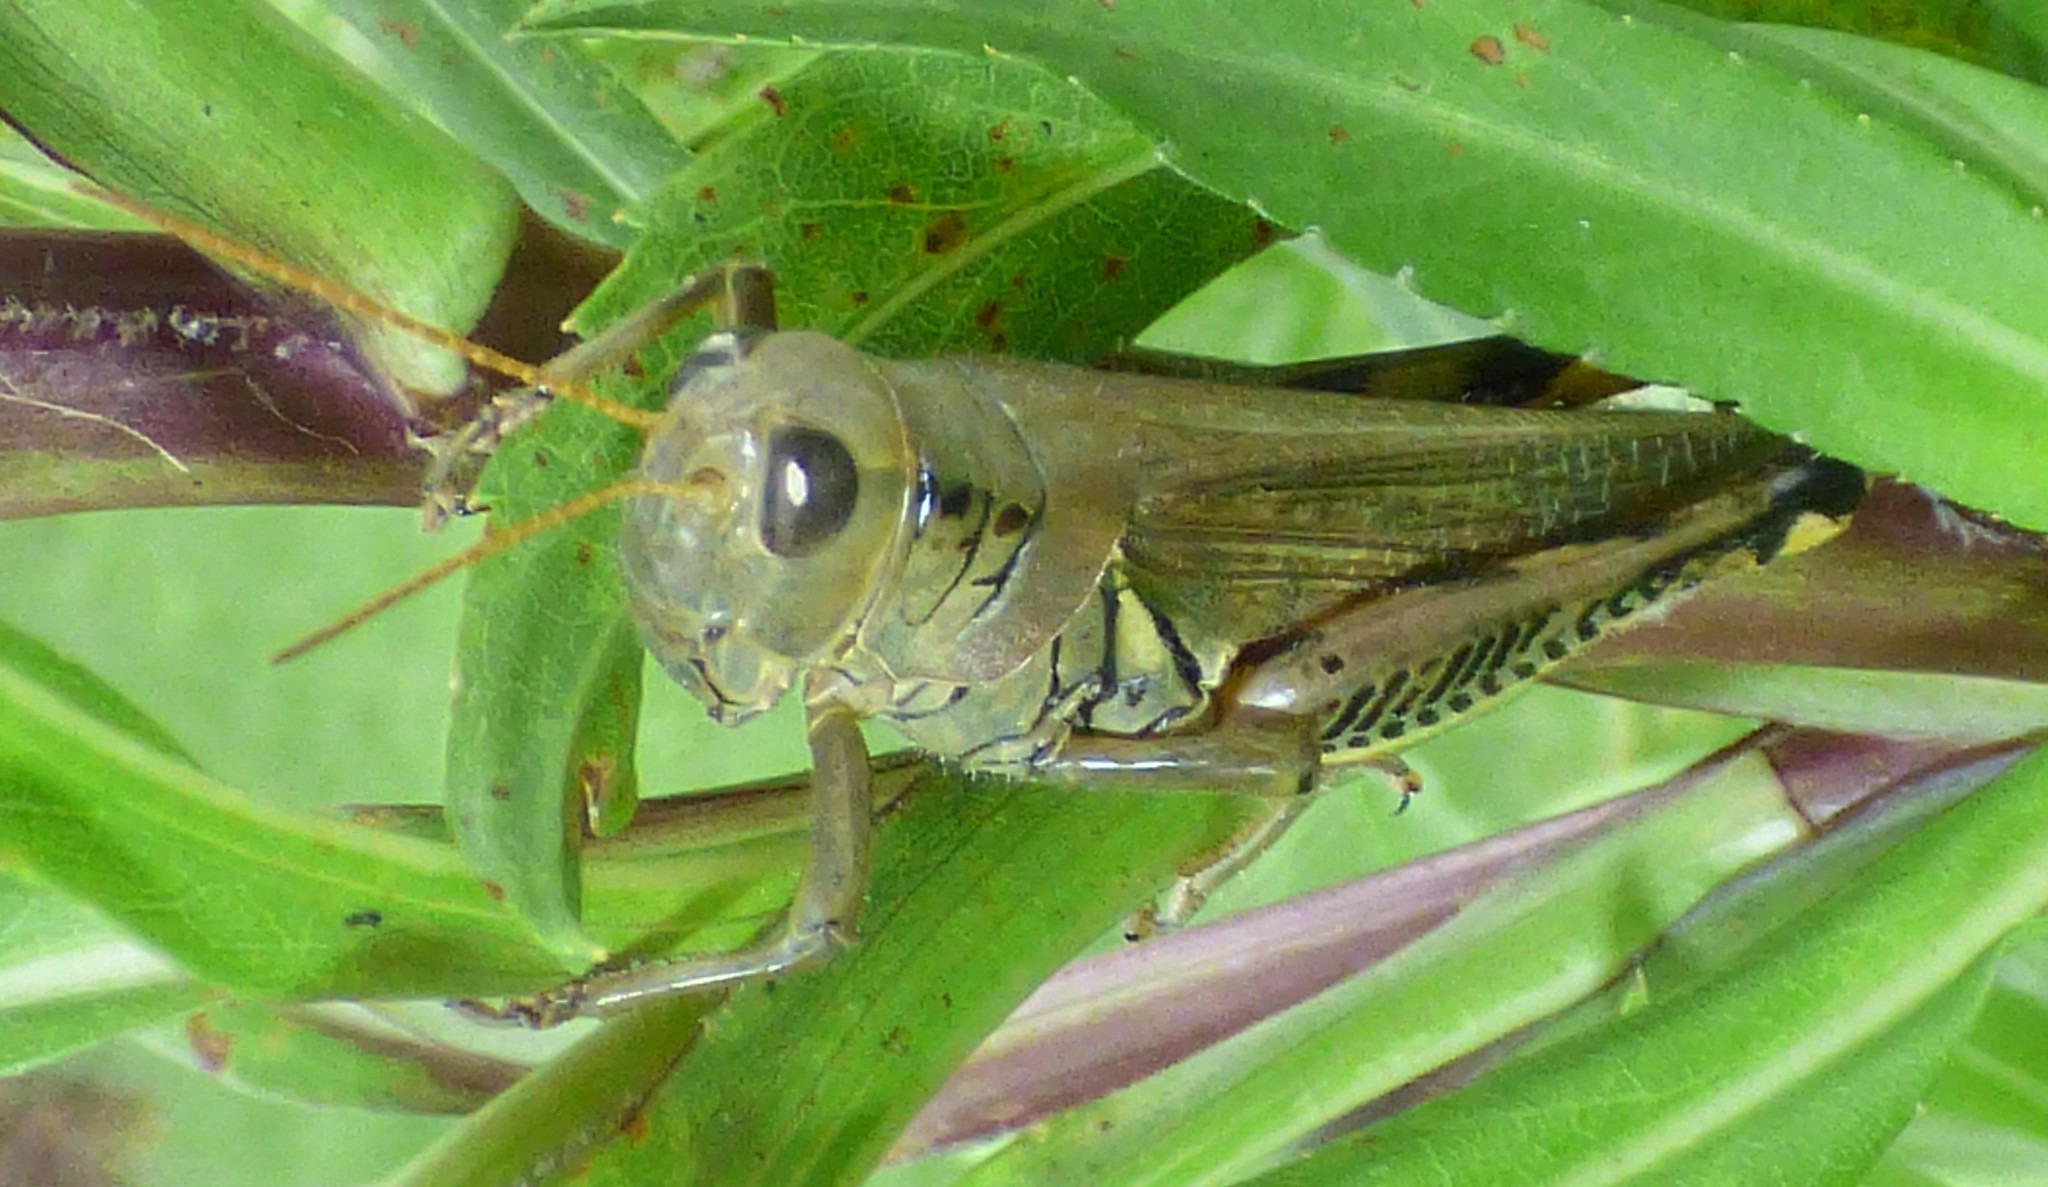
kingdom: Animalia
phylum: Arthropoda
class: Insecta
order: Orthoptera
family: Acrididae
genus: Melanoplus
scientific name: Melanoplus differentialis
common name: Differential grasshopper
